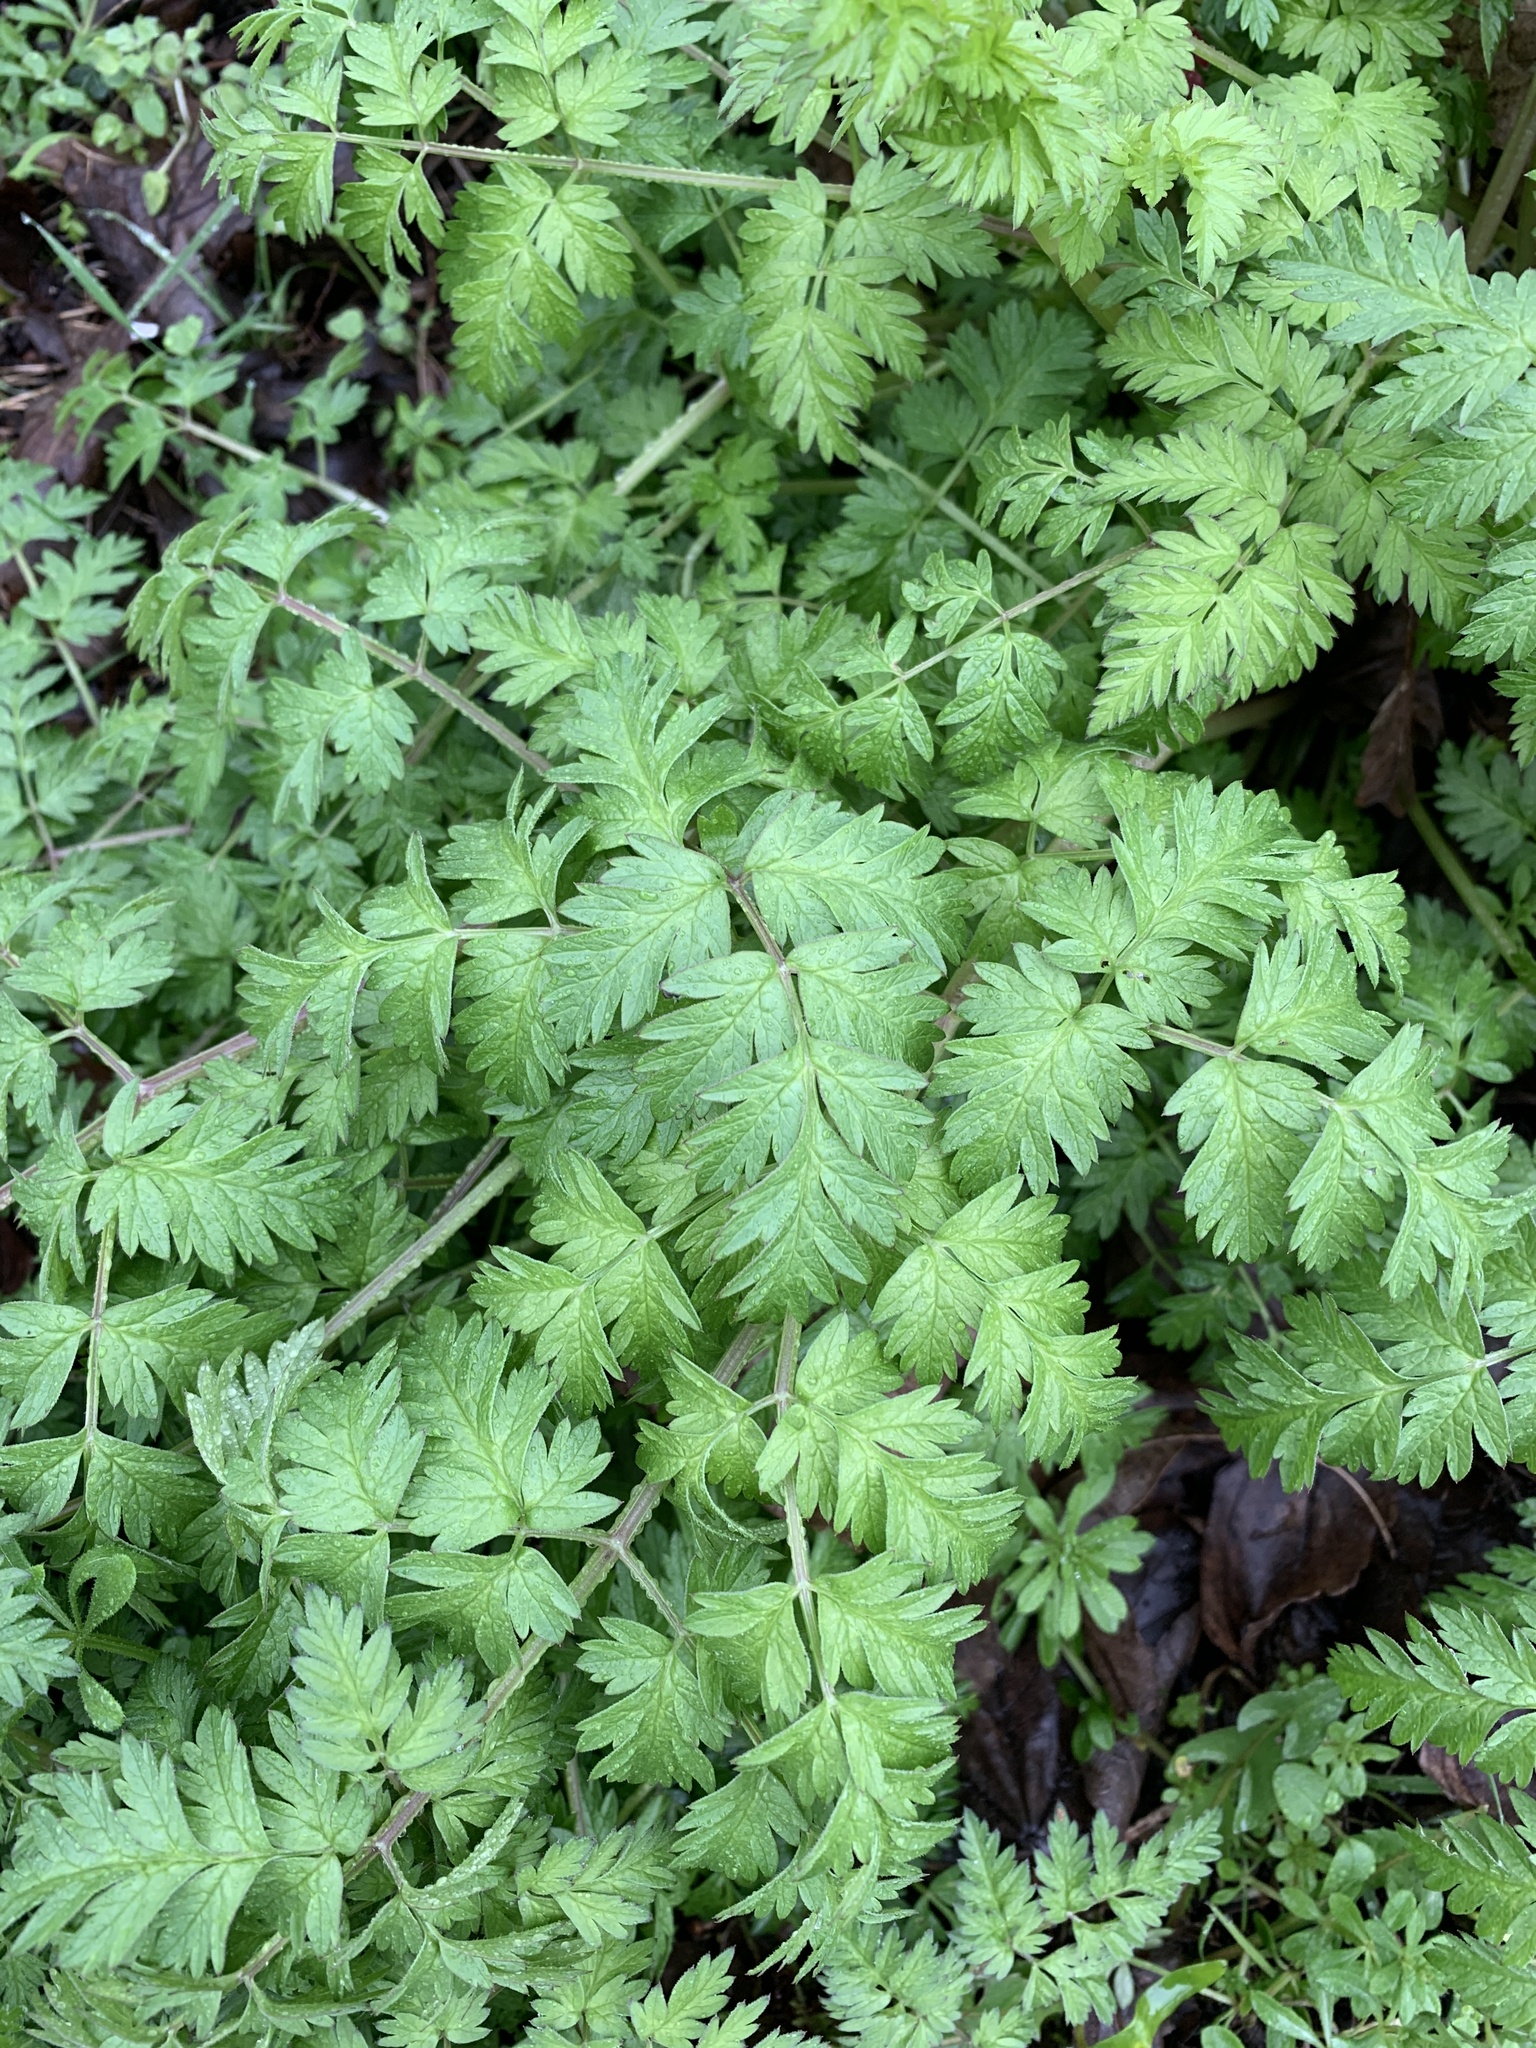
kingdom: Plantae
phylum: Tracheophyta
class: Magnoliopsida
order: Apiales
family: Apiaceae
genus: Anthriscus
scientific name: Anthriscus sylvestris
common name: Cow parsley
